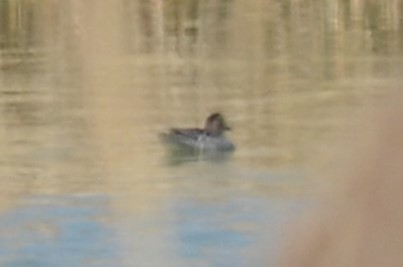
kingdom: Animalia
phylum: Chordata
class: Aves
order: Anseriformes
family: Anatidae
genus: Anas
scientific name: Anas crecca
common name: Eurasian teal
